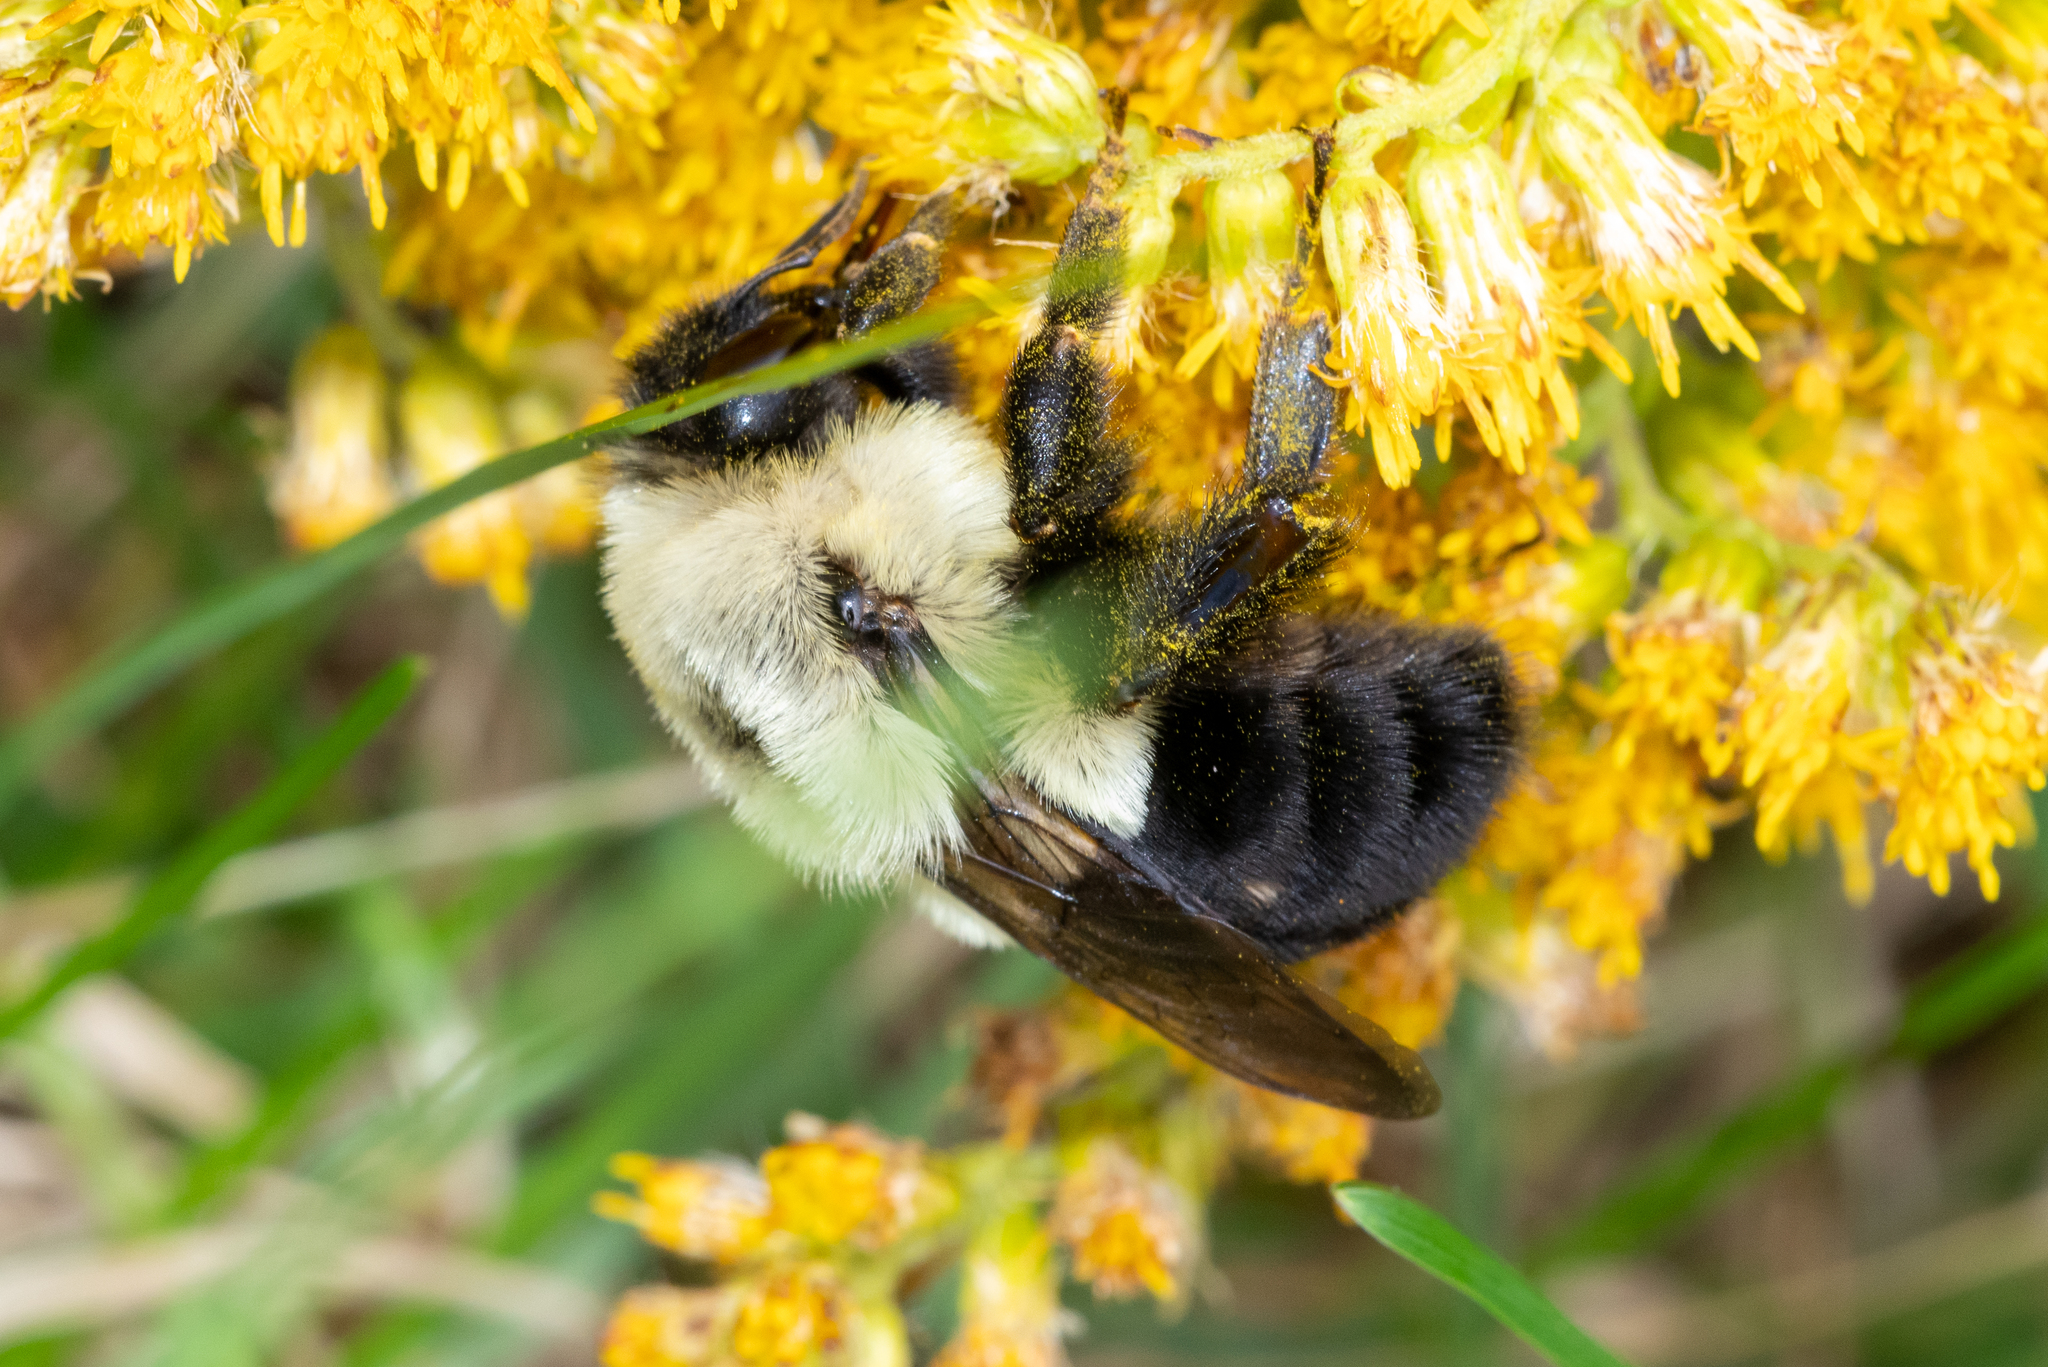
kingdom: Animalia
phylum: Arthropoda
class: Insecta
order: Hymenoptera
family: Apidae
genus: Bombus
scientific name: Bombus impatiens
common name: Common eastern bumble bee
